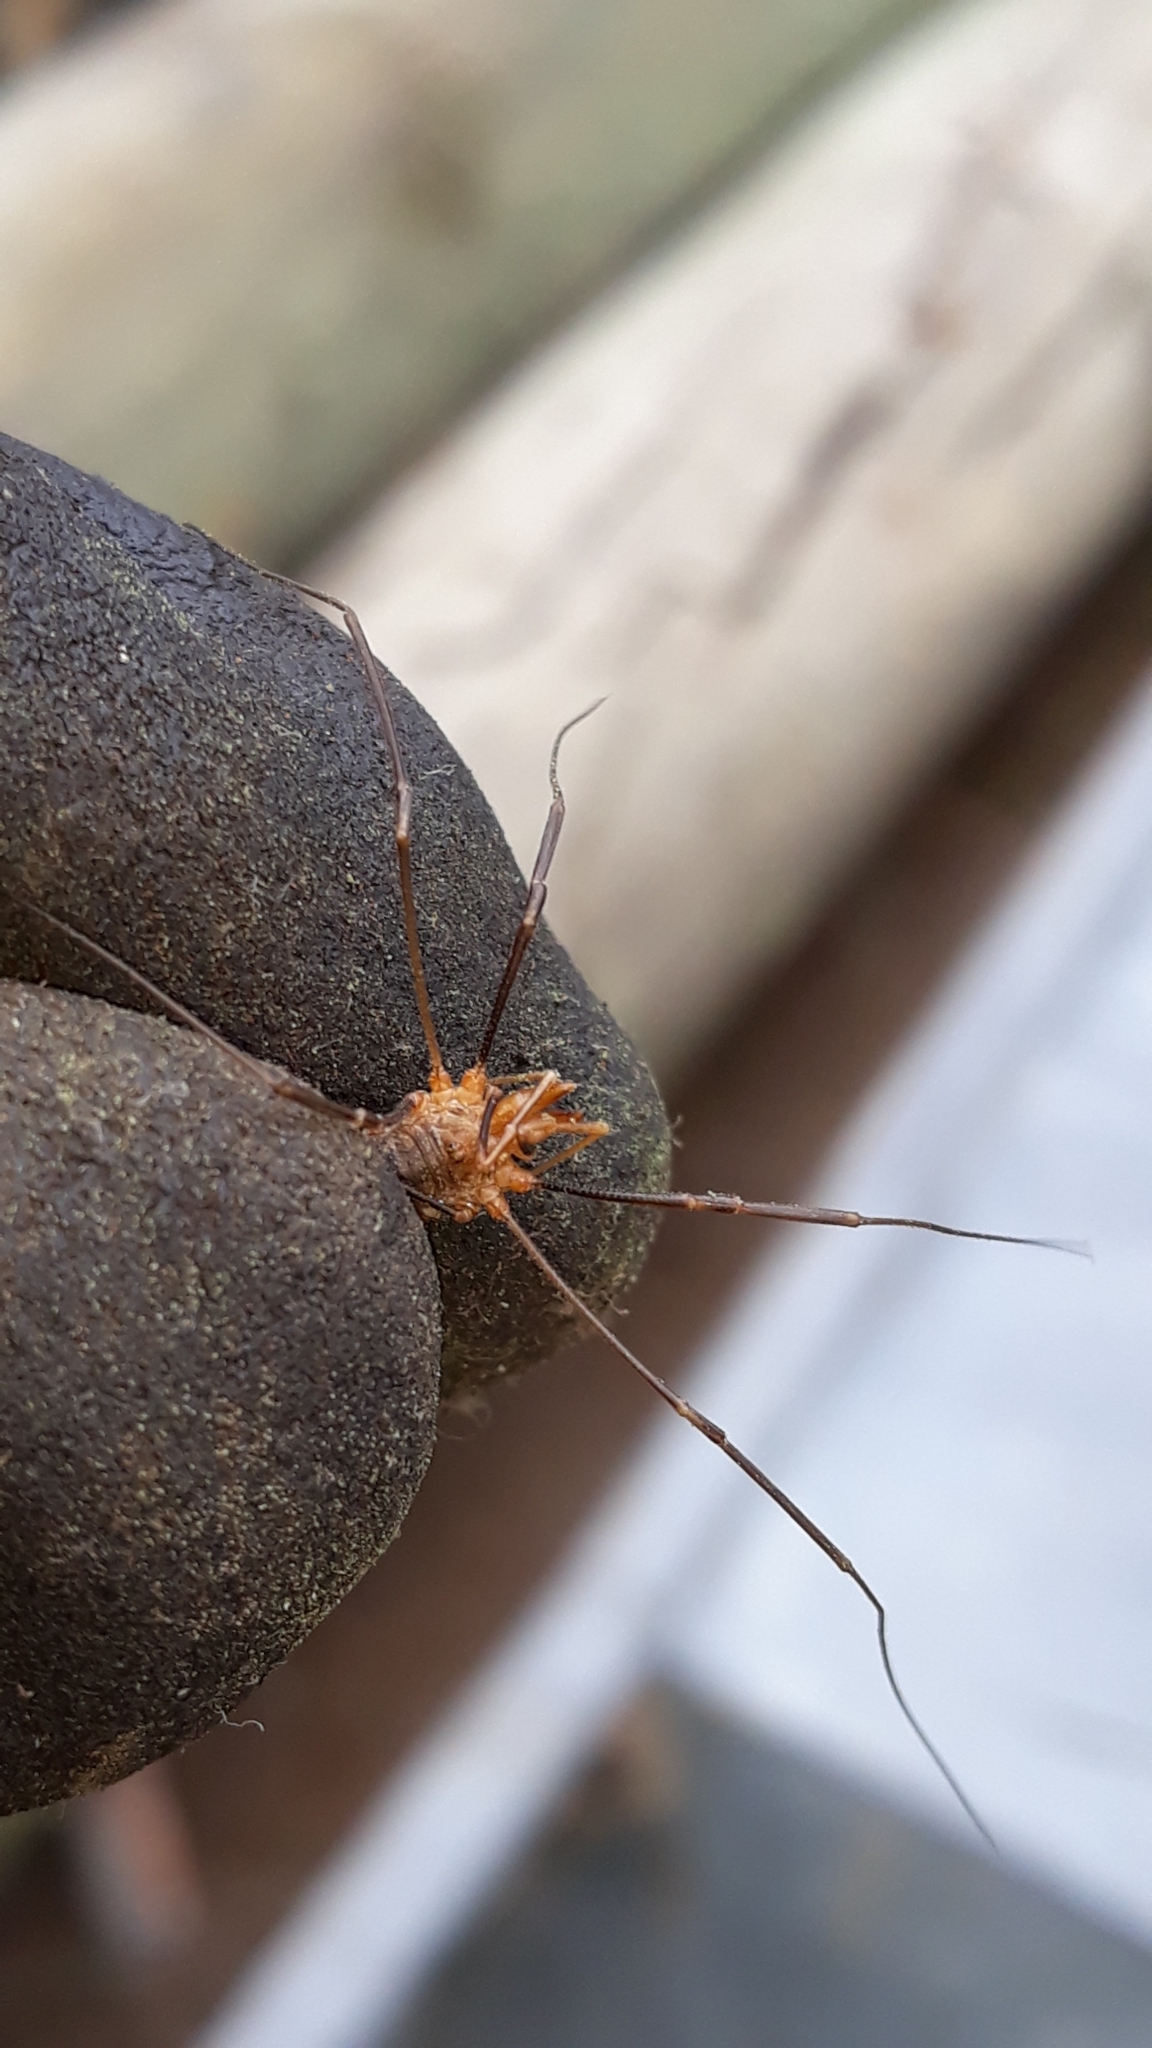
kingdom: Animalia
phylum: Arthropoda
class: Arachnida
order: Opiliones
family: Phalangiidae
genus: Phalangium
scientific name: Phalangium opilio
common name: Daddy longleg
